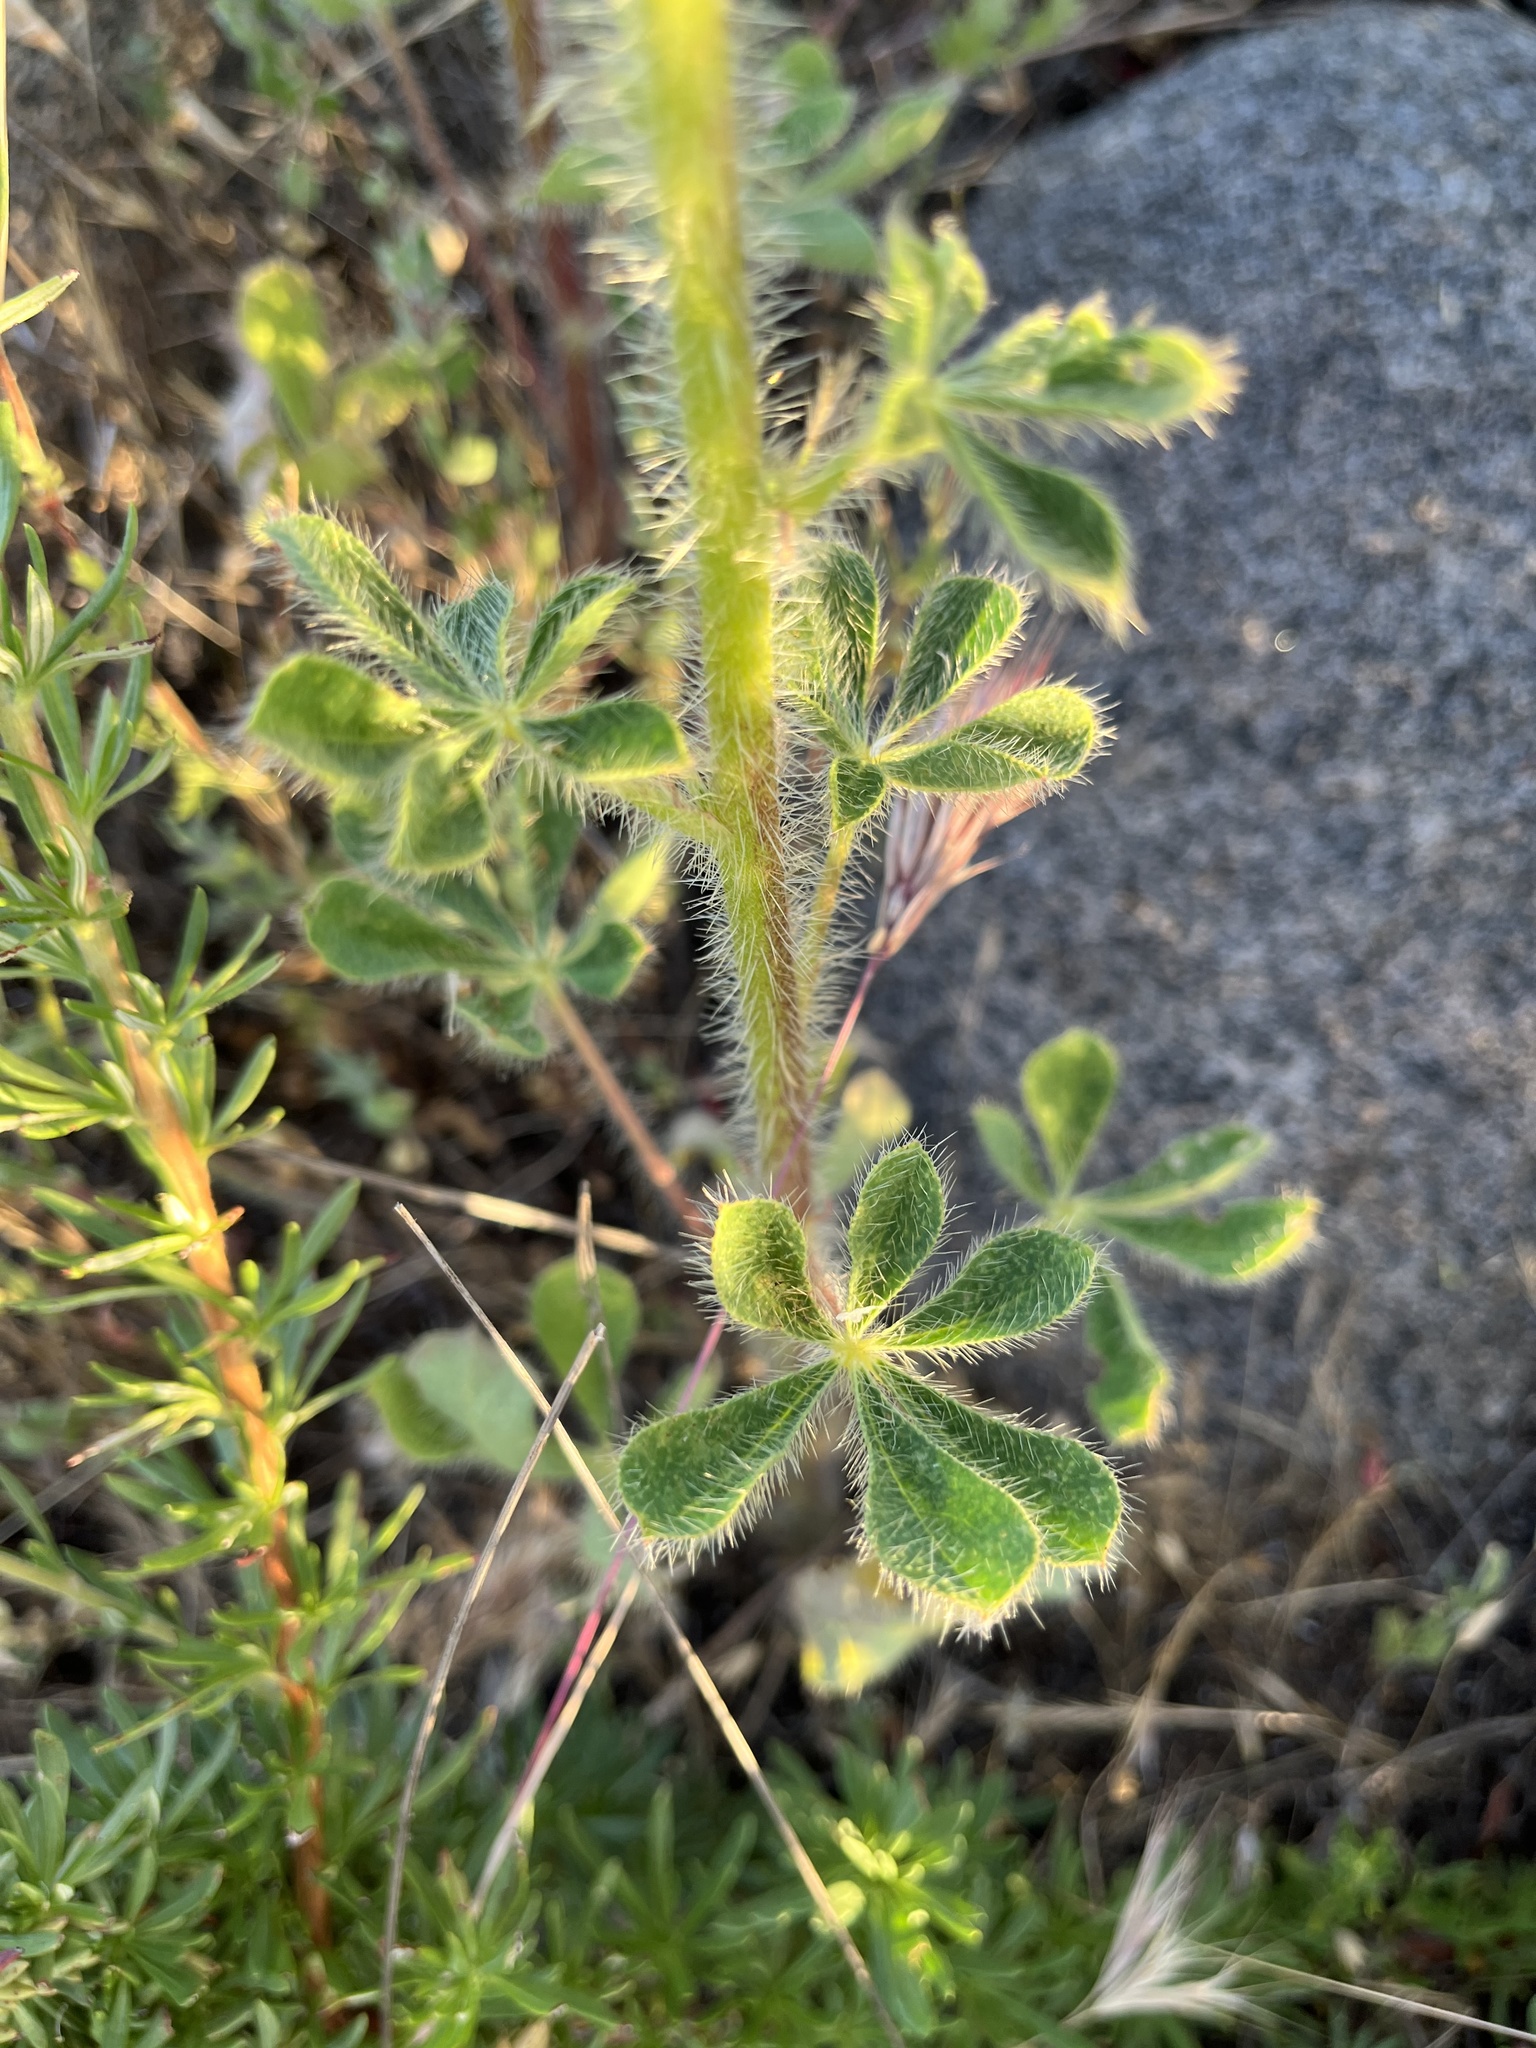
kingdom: Plantae
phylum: Tracheophyta
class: Magnoliopsida
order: Fabales
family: Fabaceae
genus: Lupinus
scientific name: Lupinus hirsutissimus
